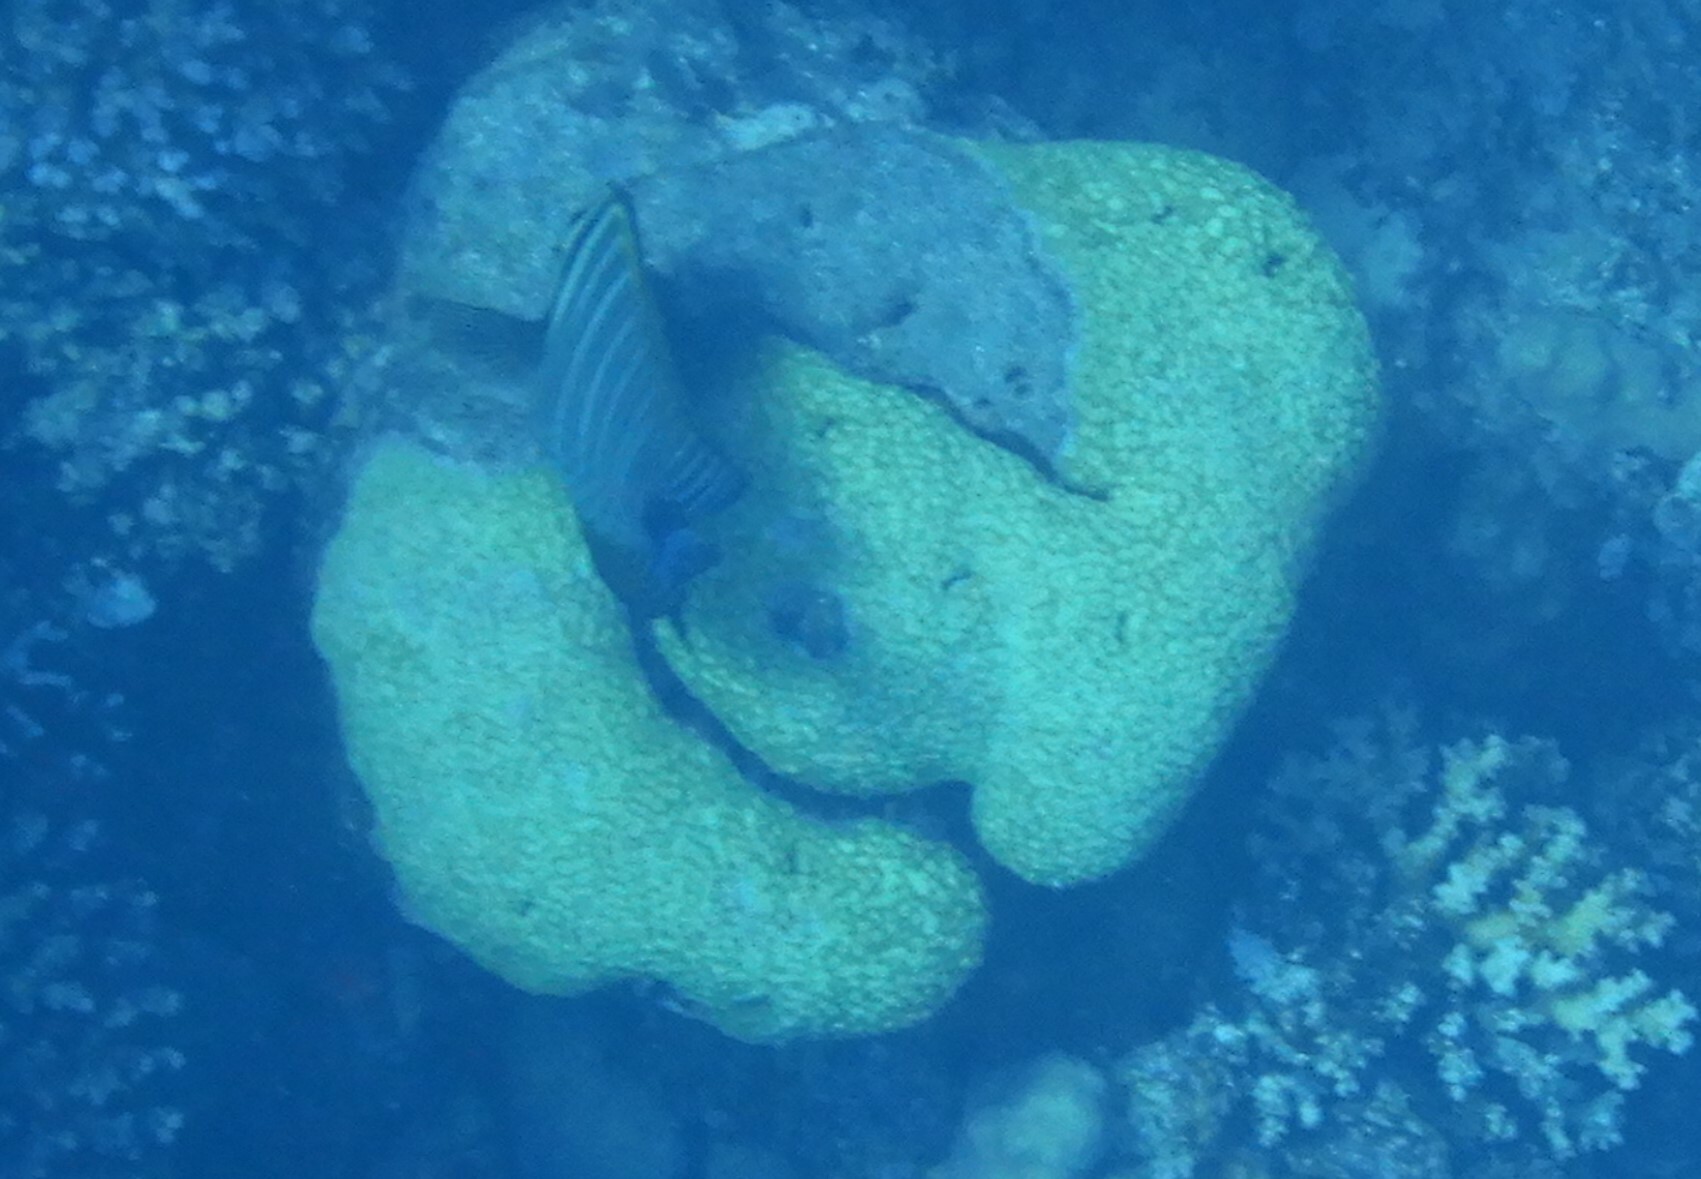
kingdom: Animalia
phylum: Chordata
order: Perciformes
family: Acanthuridae
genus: Zebrasoma
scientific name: Zebrasoma desjardinii
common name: Desjardin's sailfin tang
